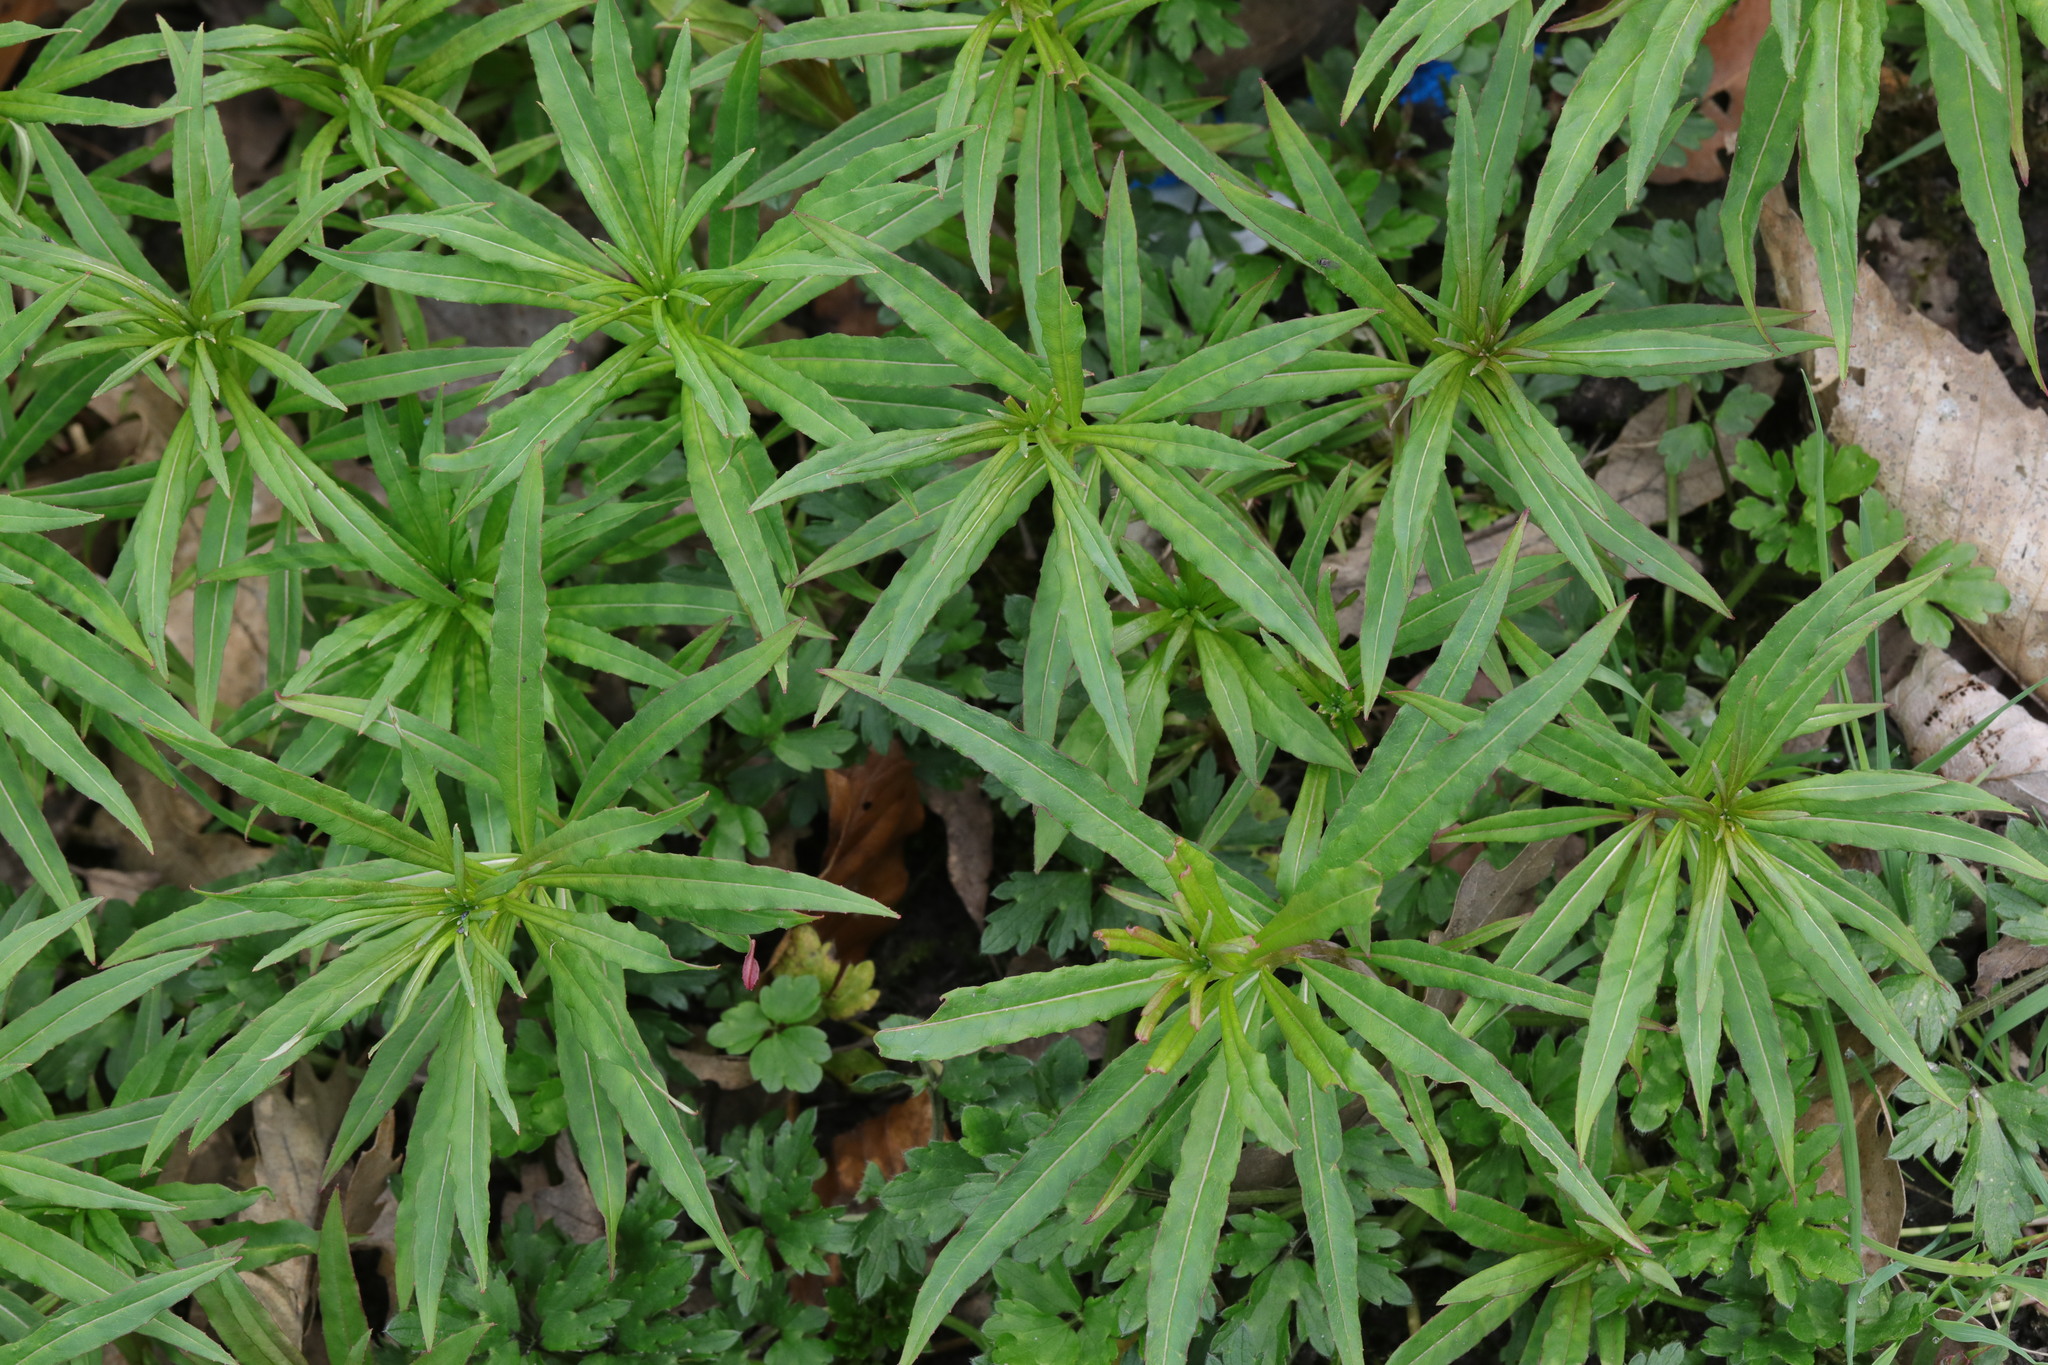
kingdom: Plantae
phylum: Tracheophyta
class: Magnoliopsida
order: Myrtales
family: Onagraceae
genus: Chamaenerion
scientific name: Chamaenerion angustifolium
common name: Fireweed
